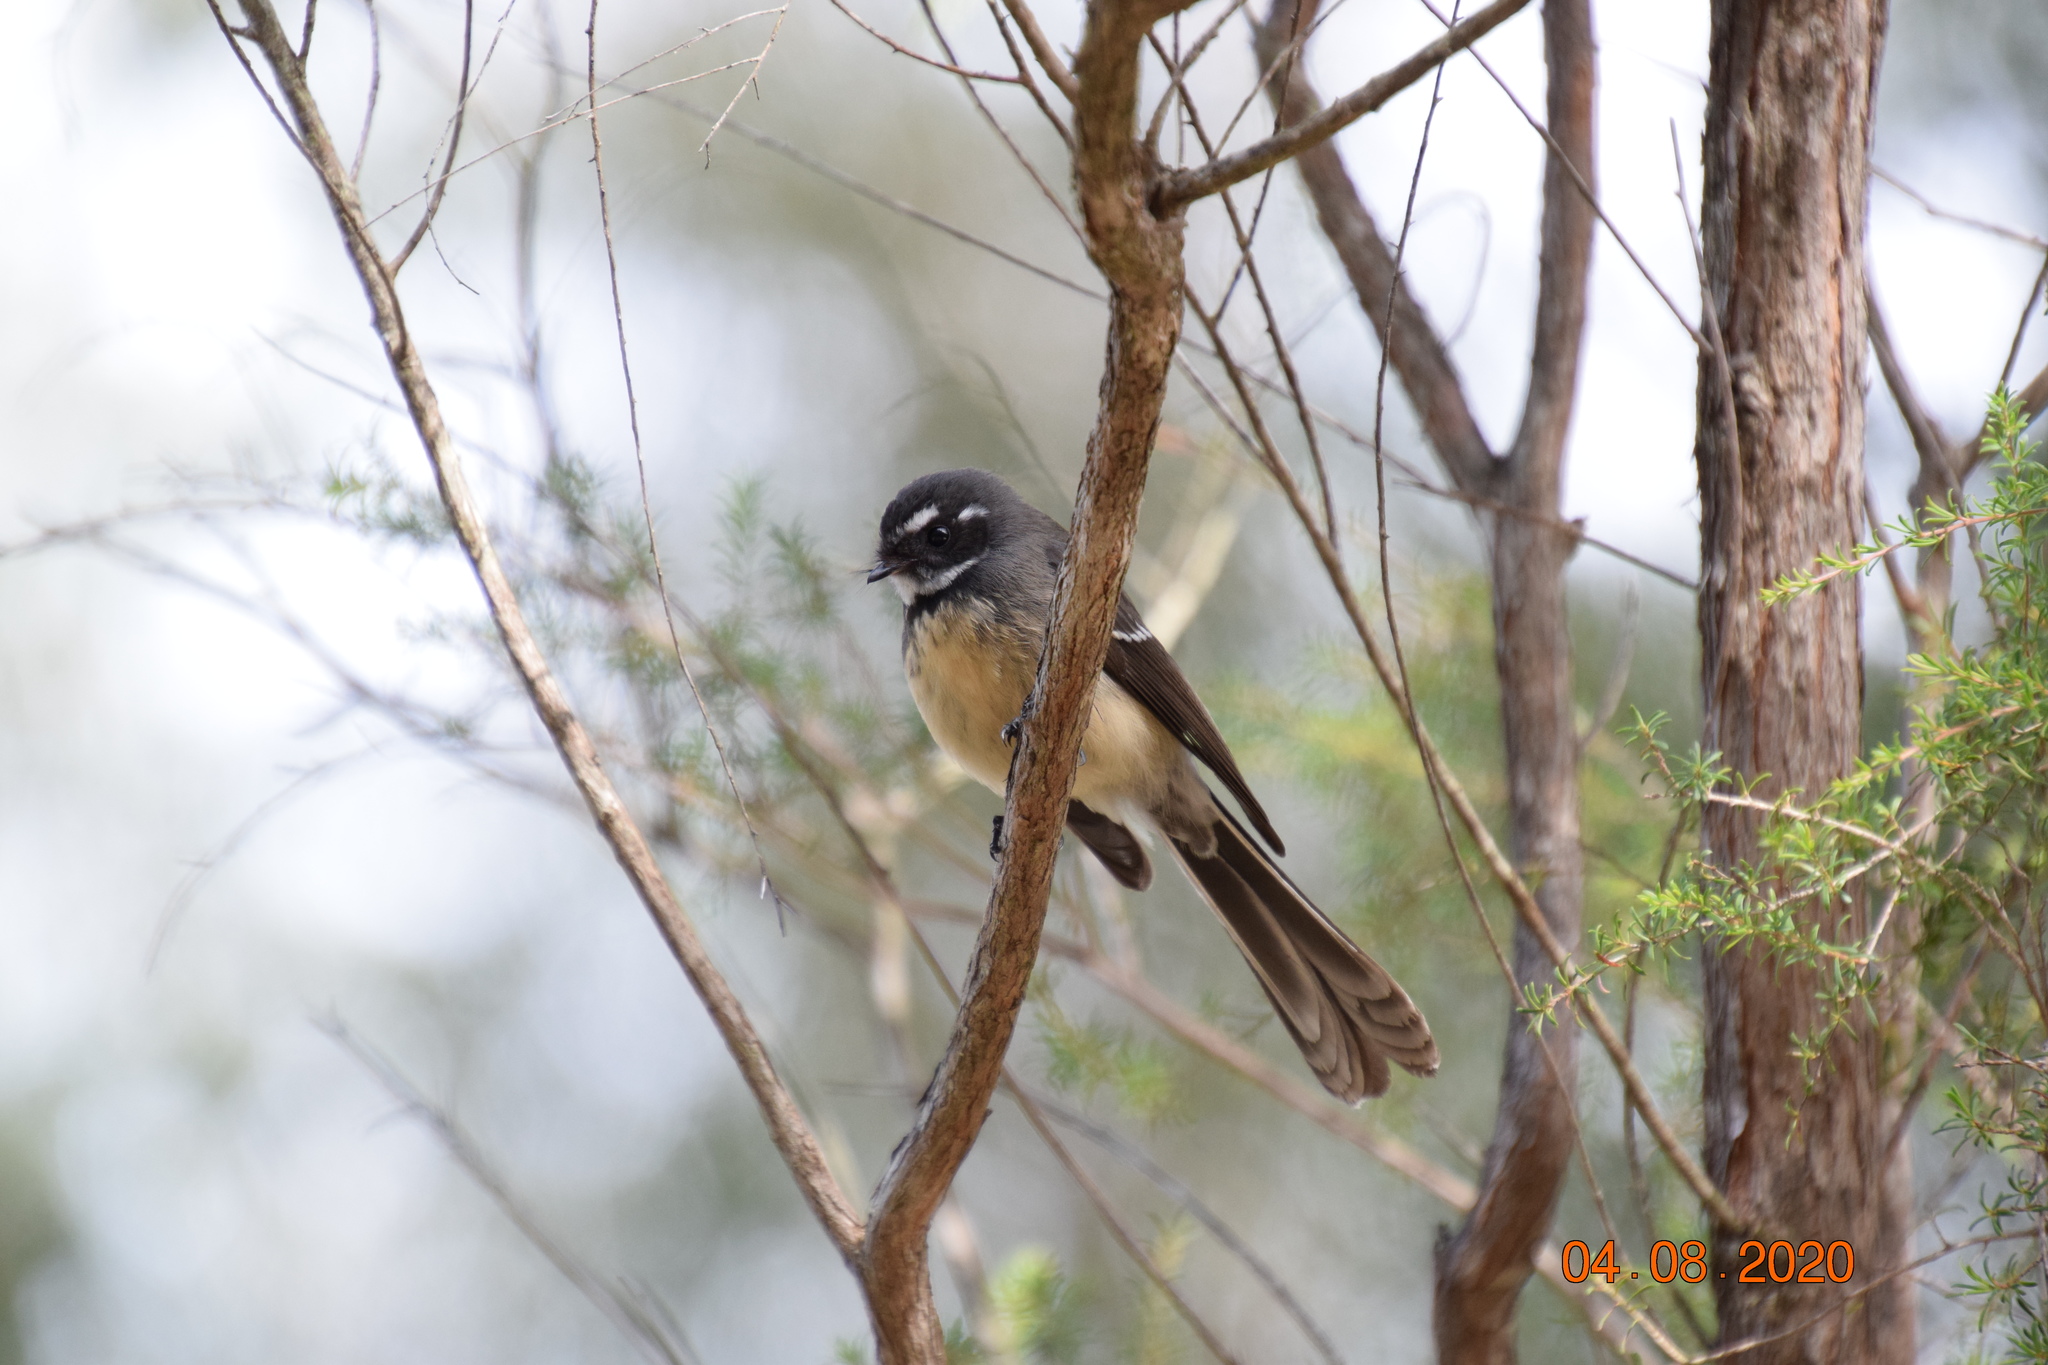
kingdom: Animalia
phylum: Chordata
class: Aves
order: Passeriformes
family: Rhipiduridae
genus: Rhipidura
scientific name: Rhipidura albiscapa
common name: Grey fantail
